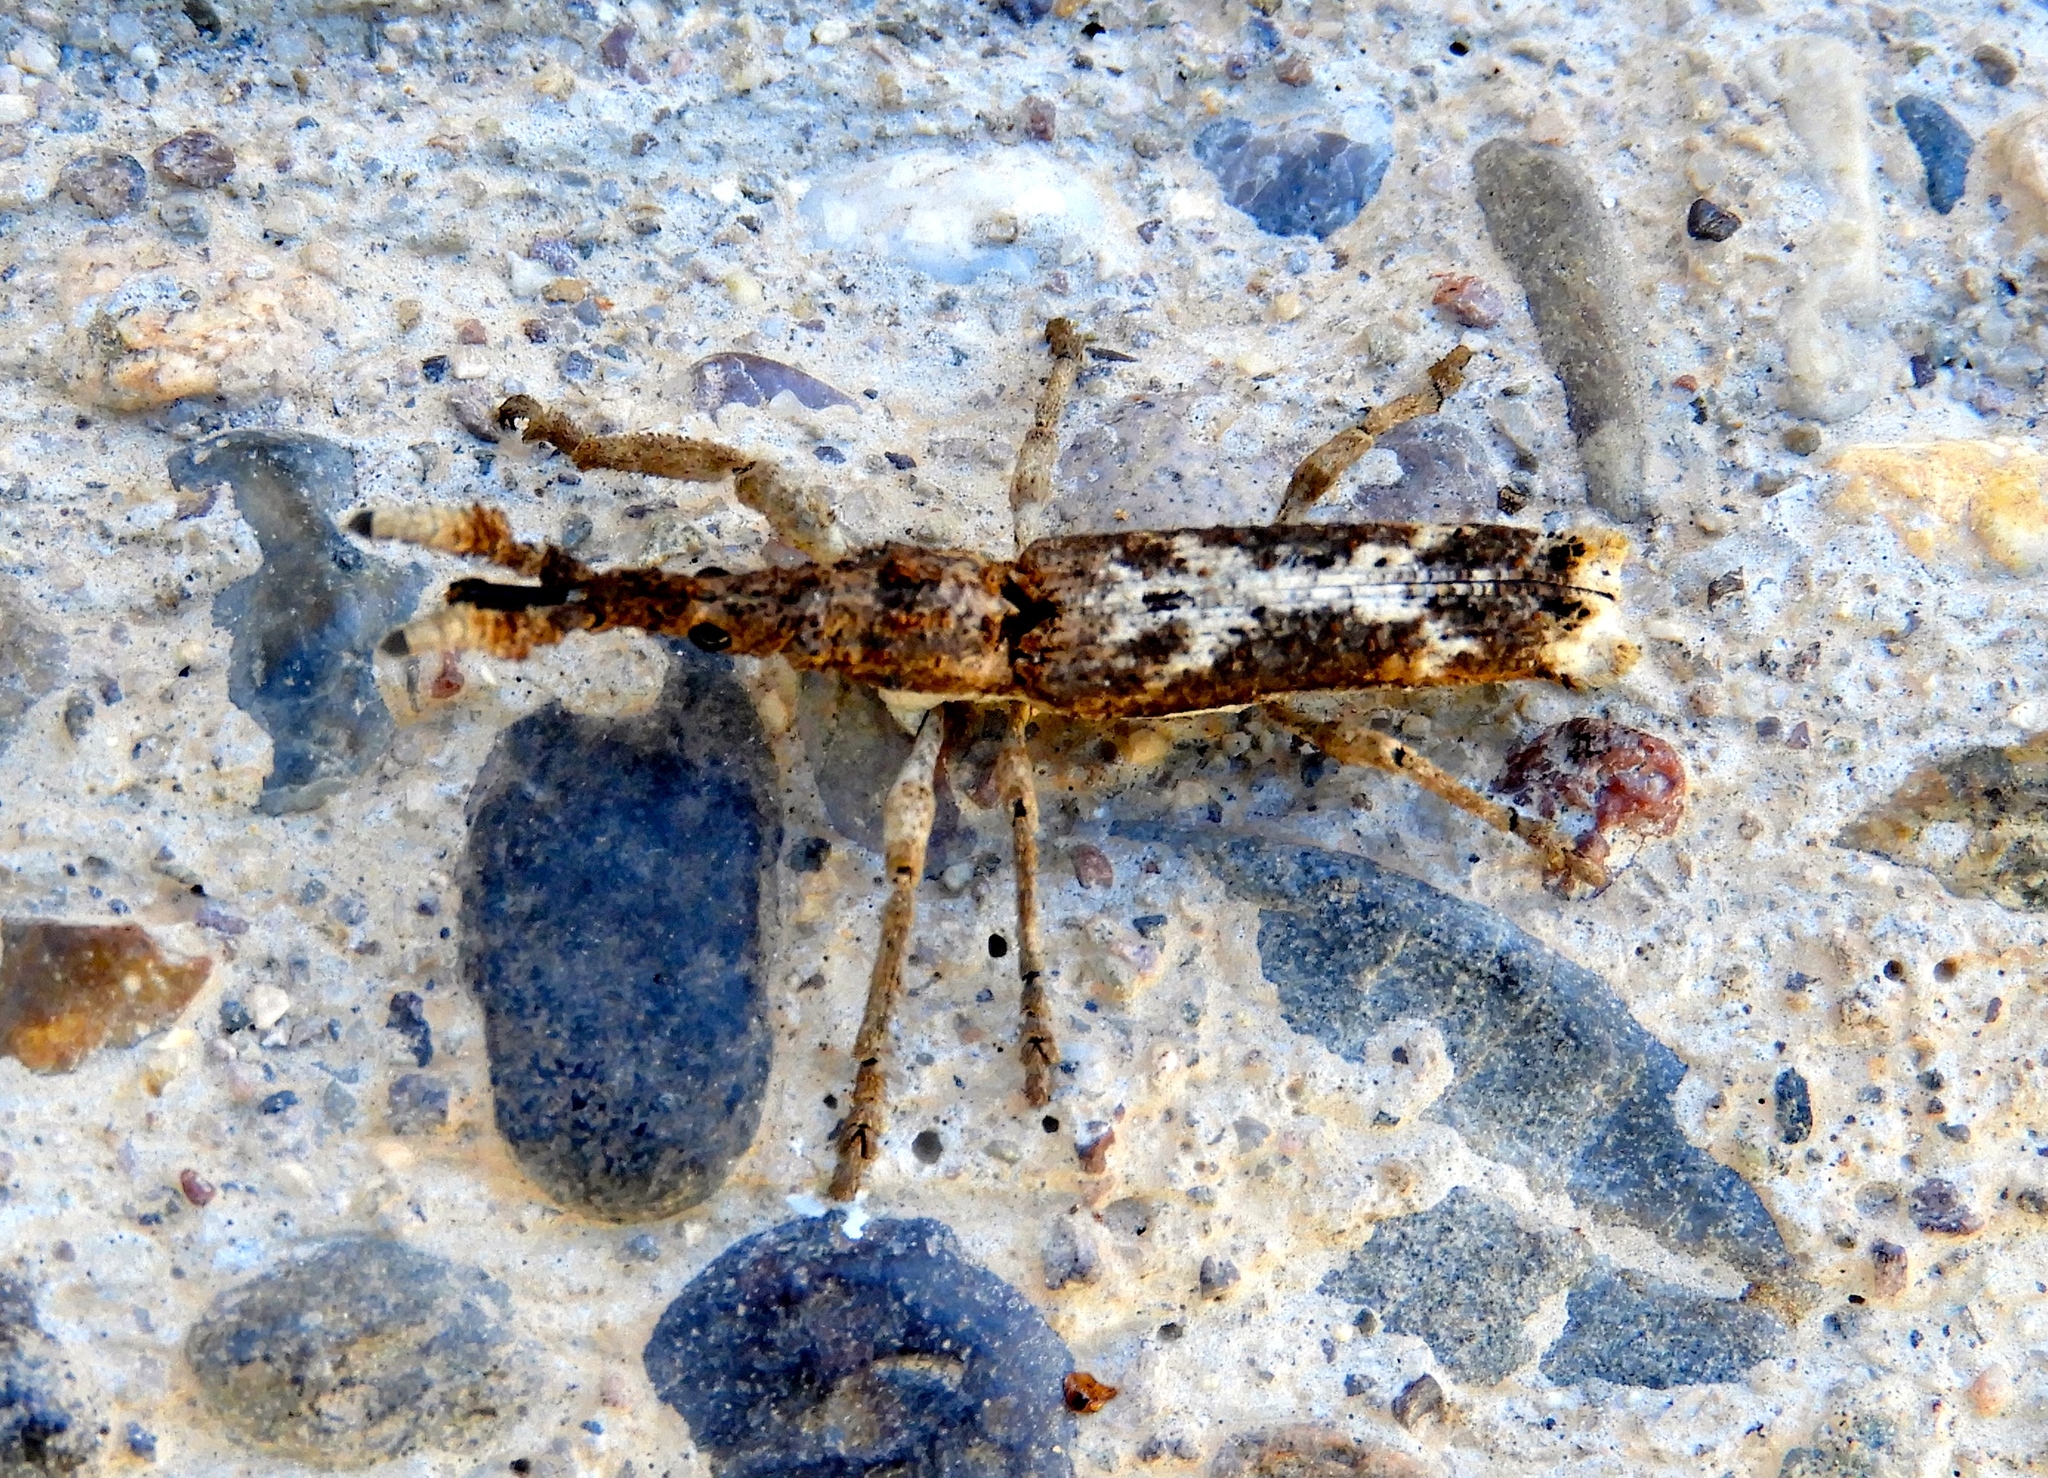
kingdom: Animalia
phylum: Arthropoda
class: Insecta
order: Coleoptera
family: Brentidae
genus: Ulocerus
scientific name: Ulocerus mexicanus
